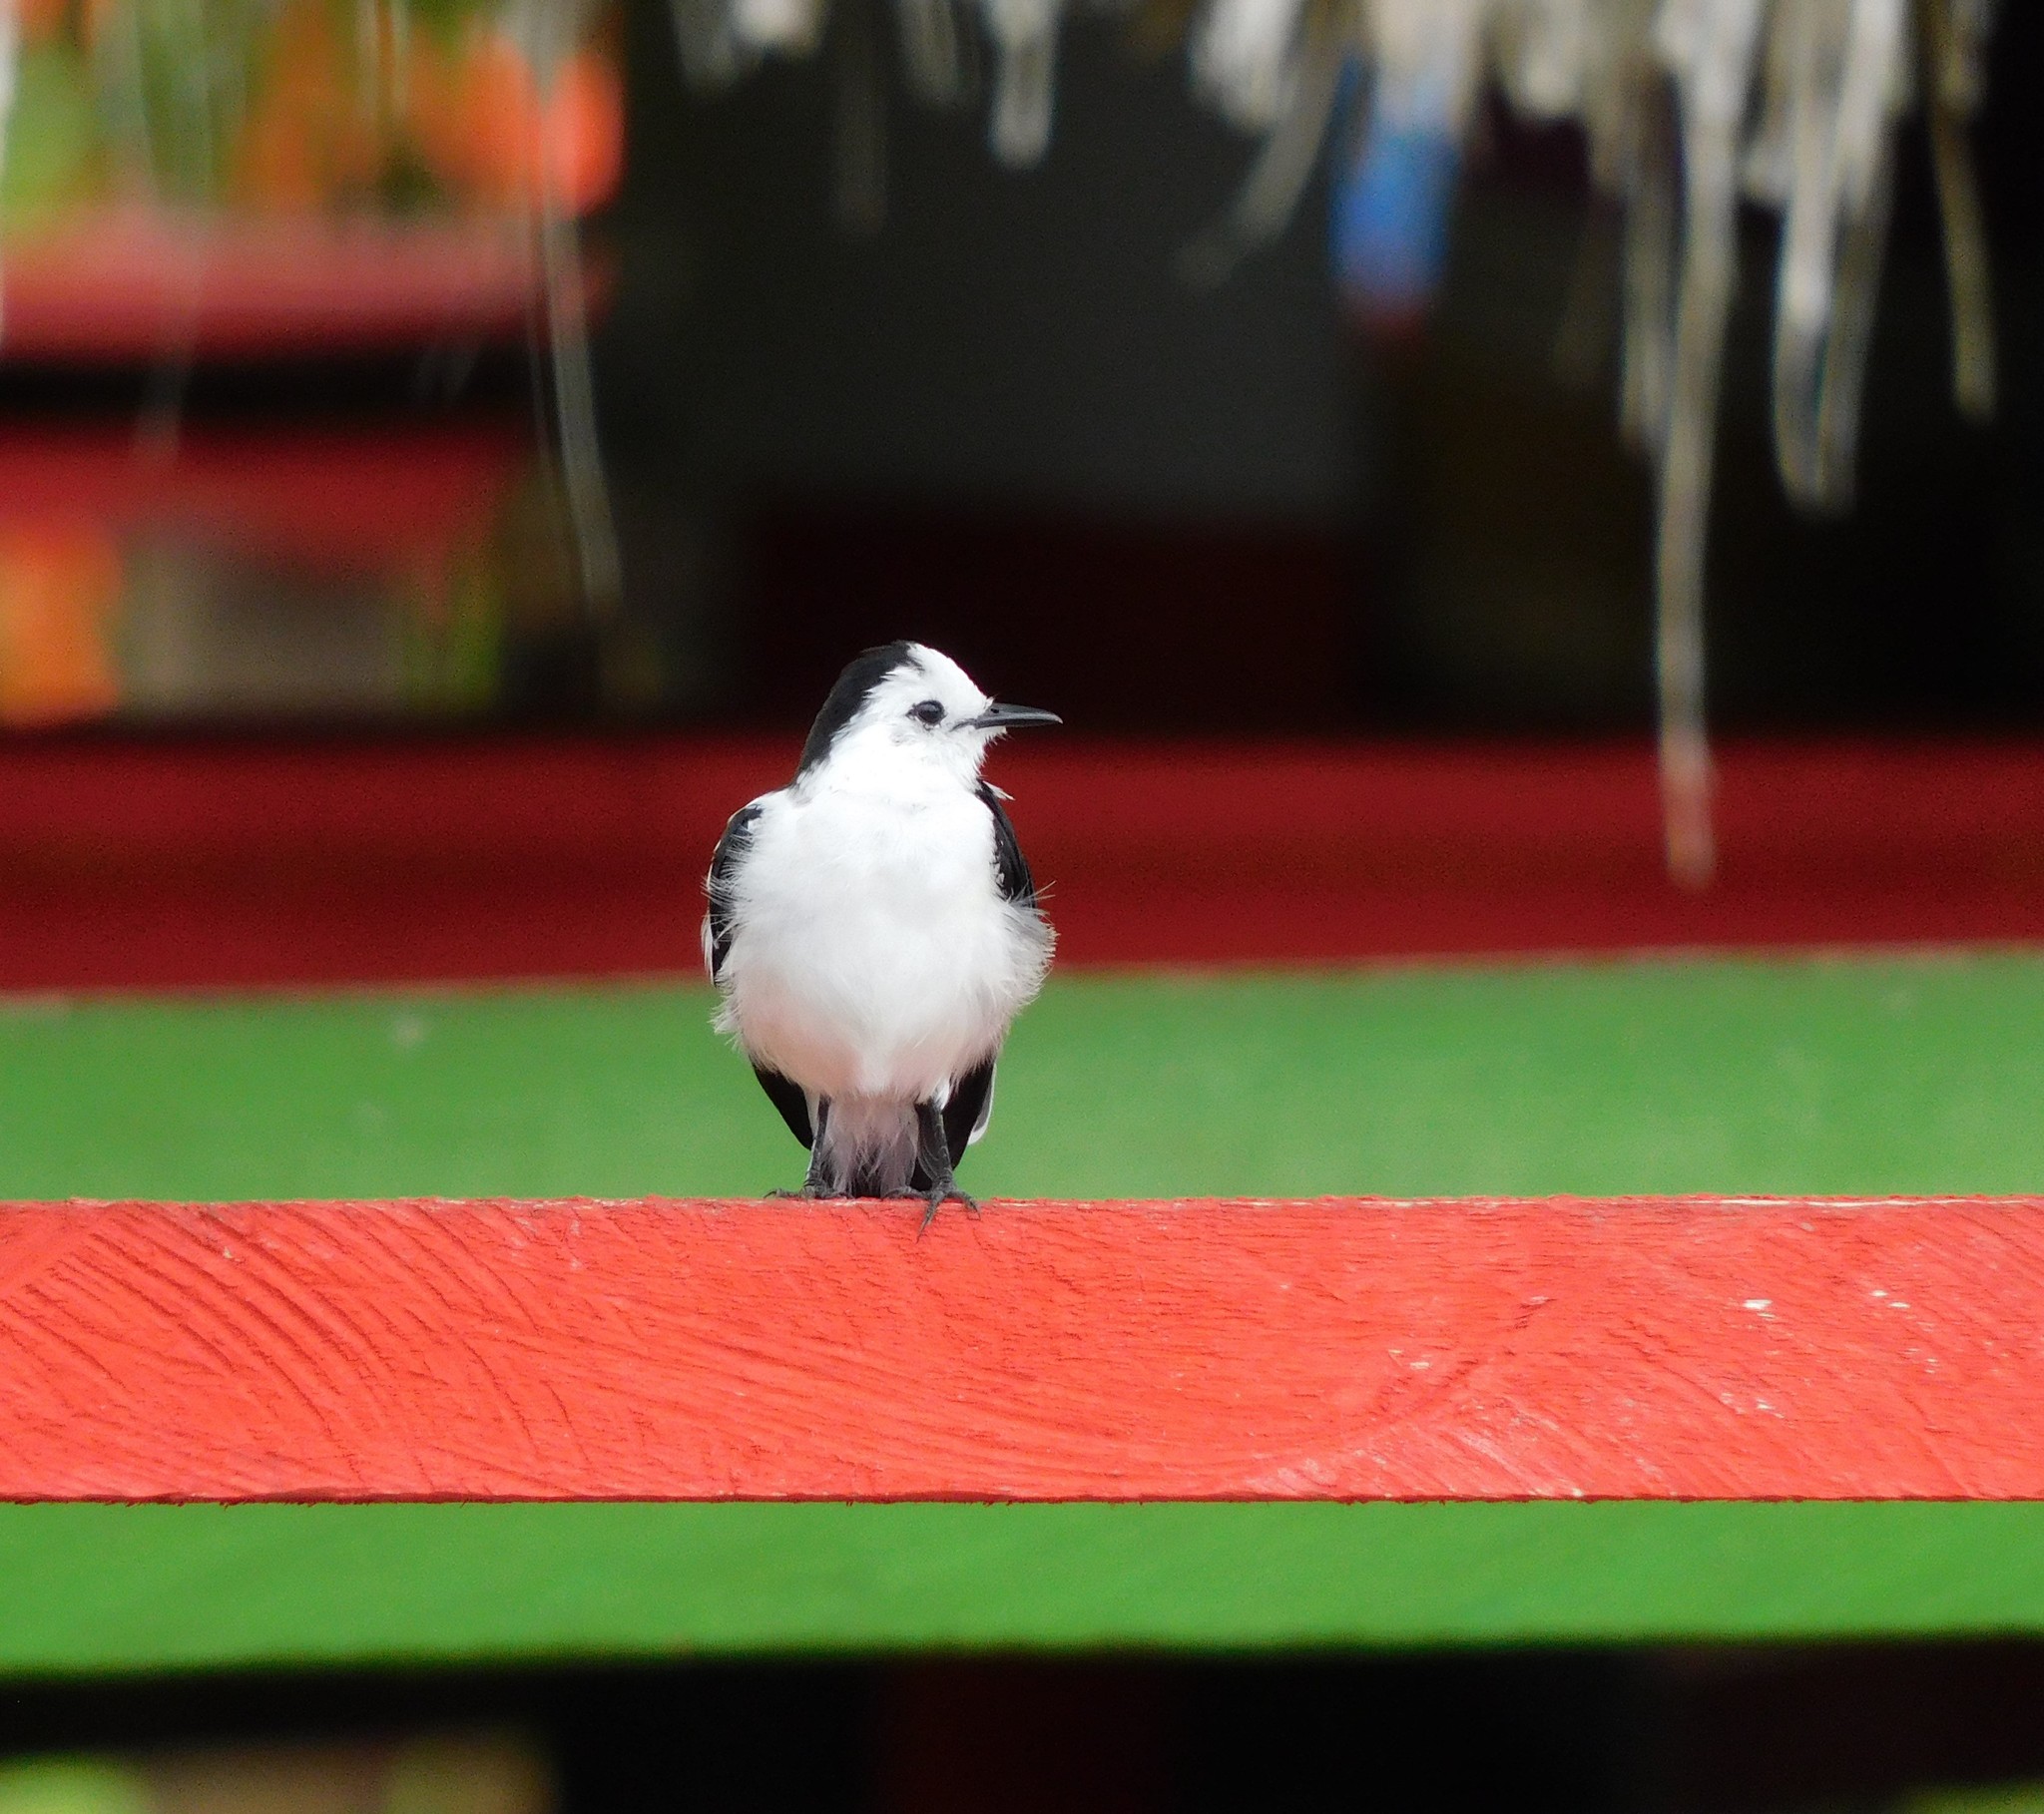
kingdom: Animalia
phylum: Chordata
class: Aves
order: Passeriformes
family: Tyrannidae
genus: Fluvicola
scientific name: Fluvicola pica
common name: Pied water-tyrant
